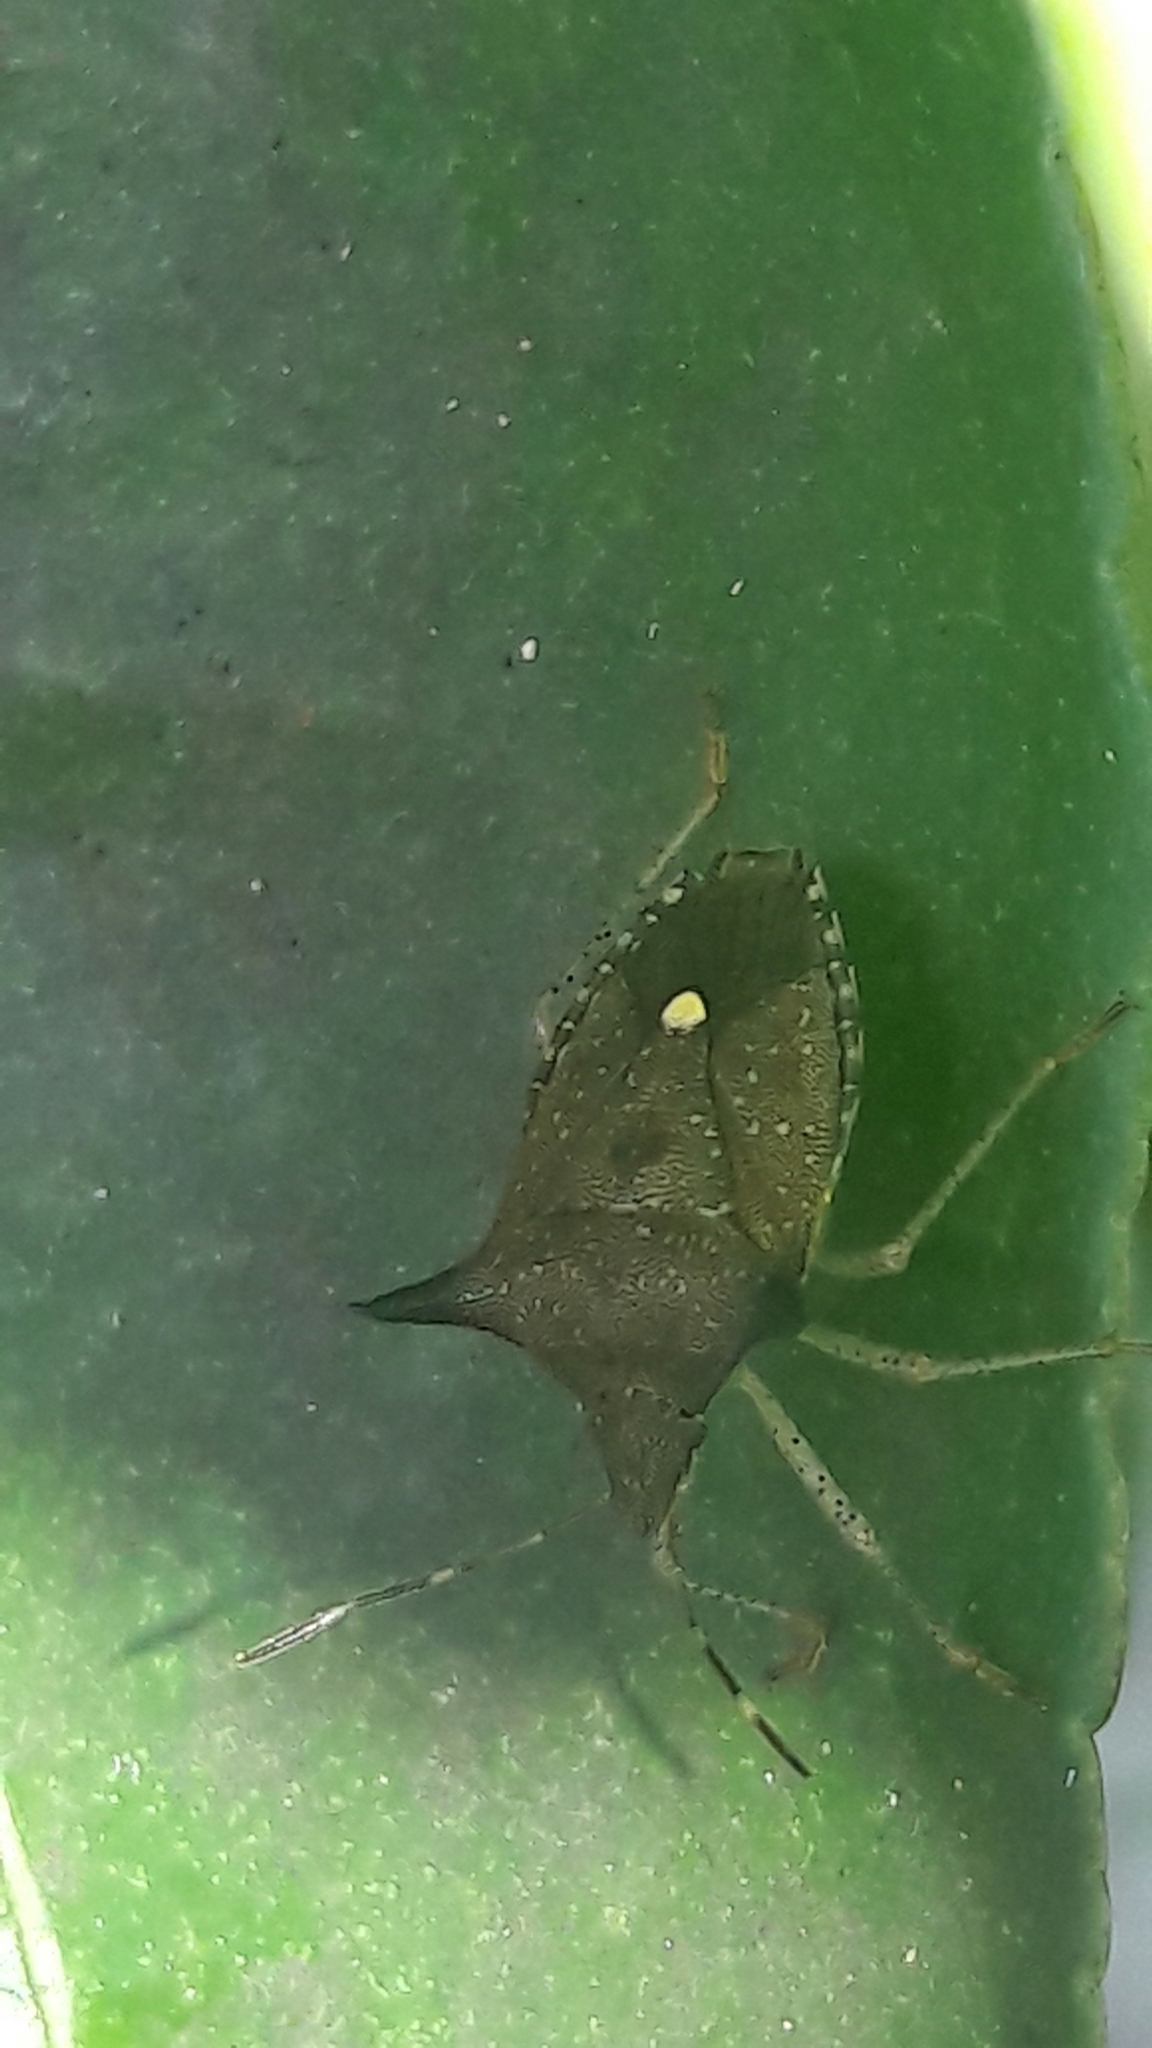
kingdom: Animalia
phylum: Arthropoda
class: Insecta
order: Hemiptera
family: Pentatomidae
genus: Euschistus
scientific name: Euschistus
